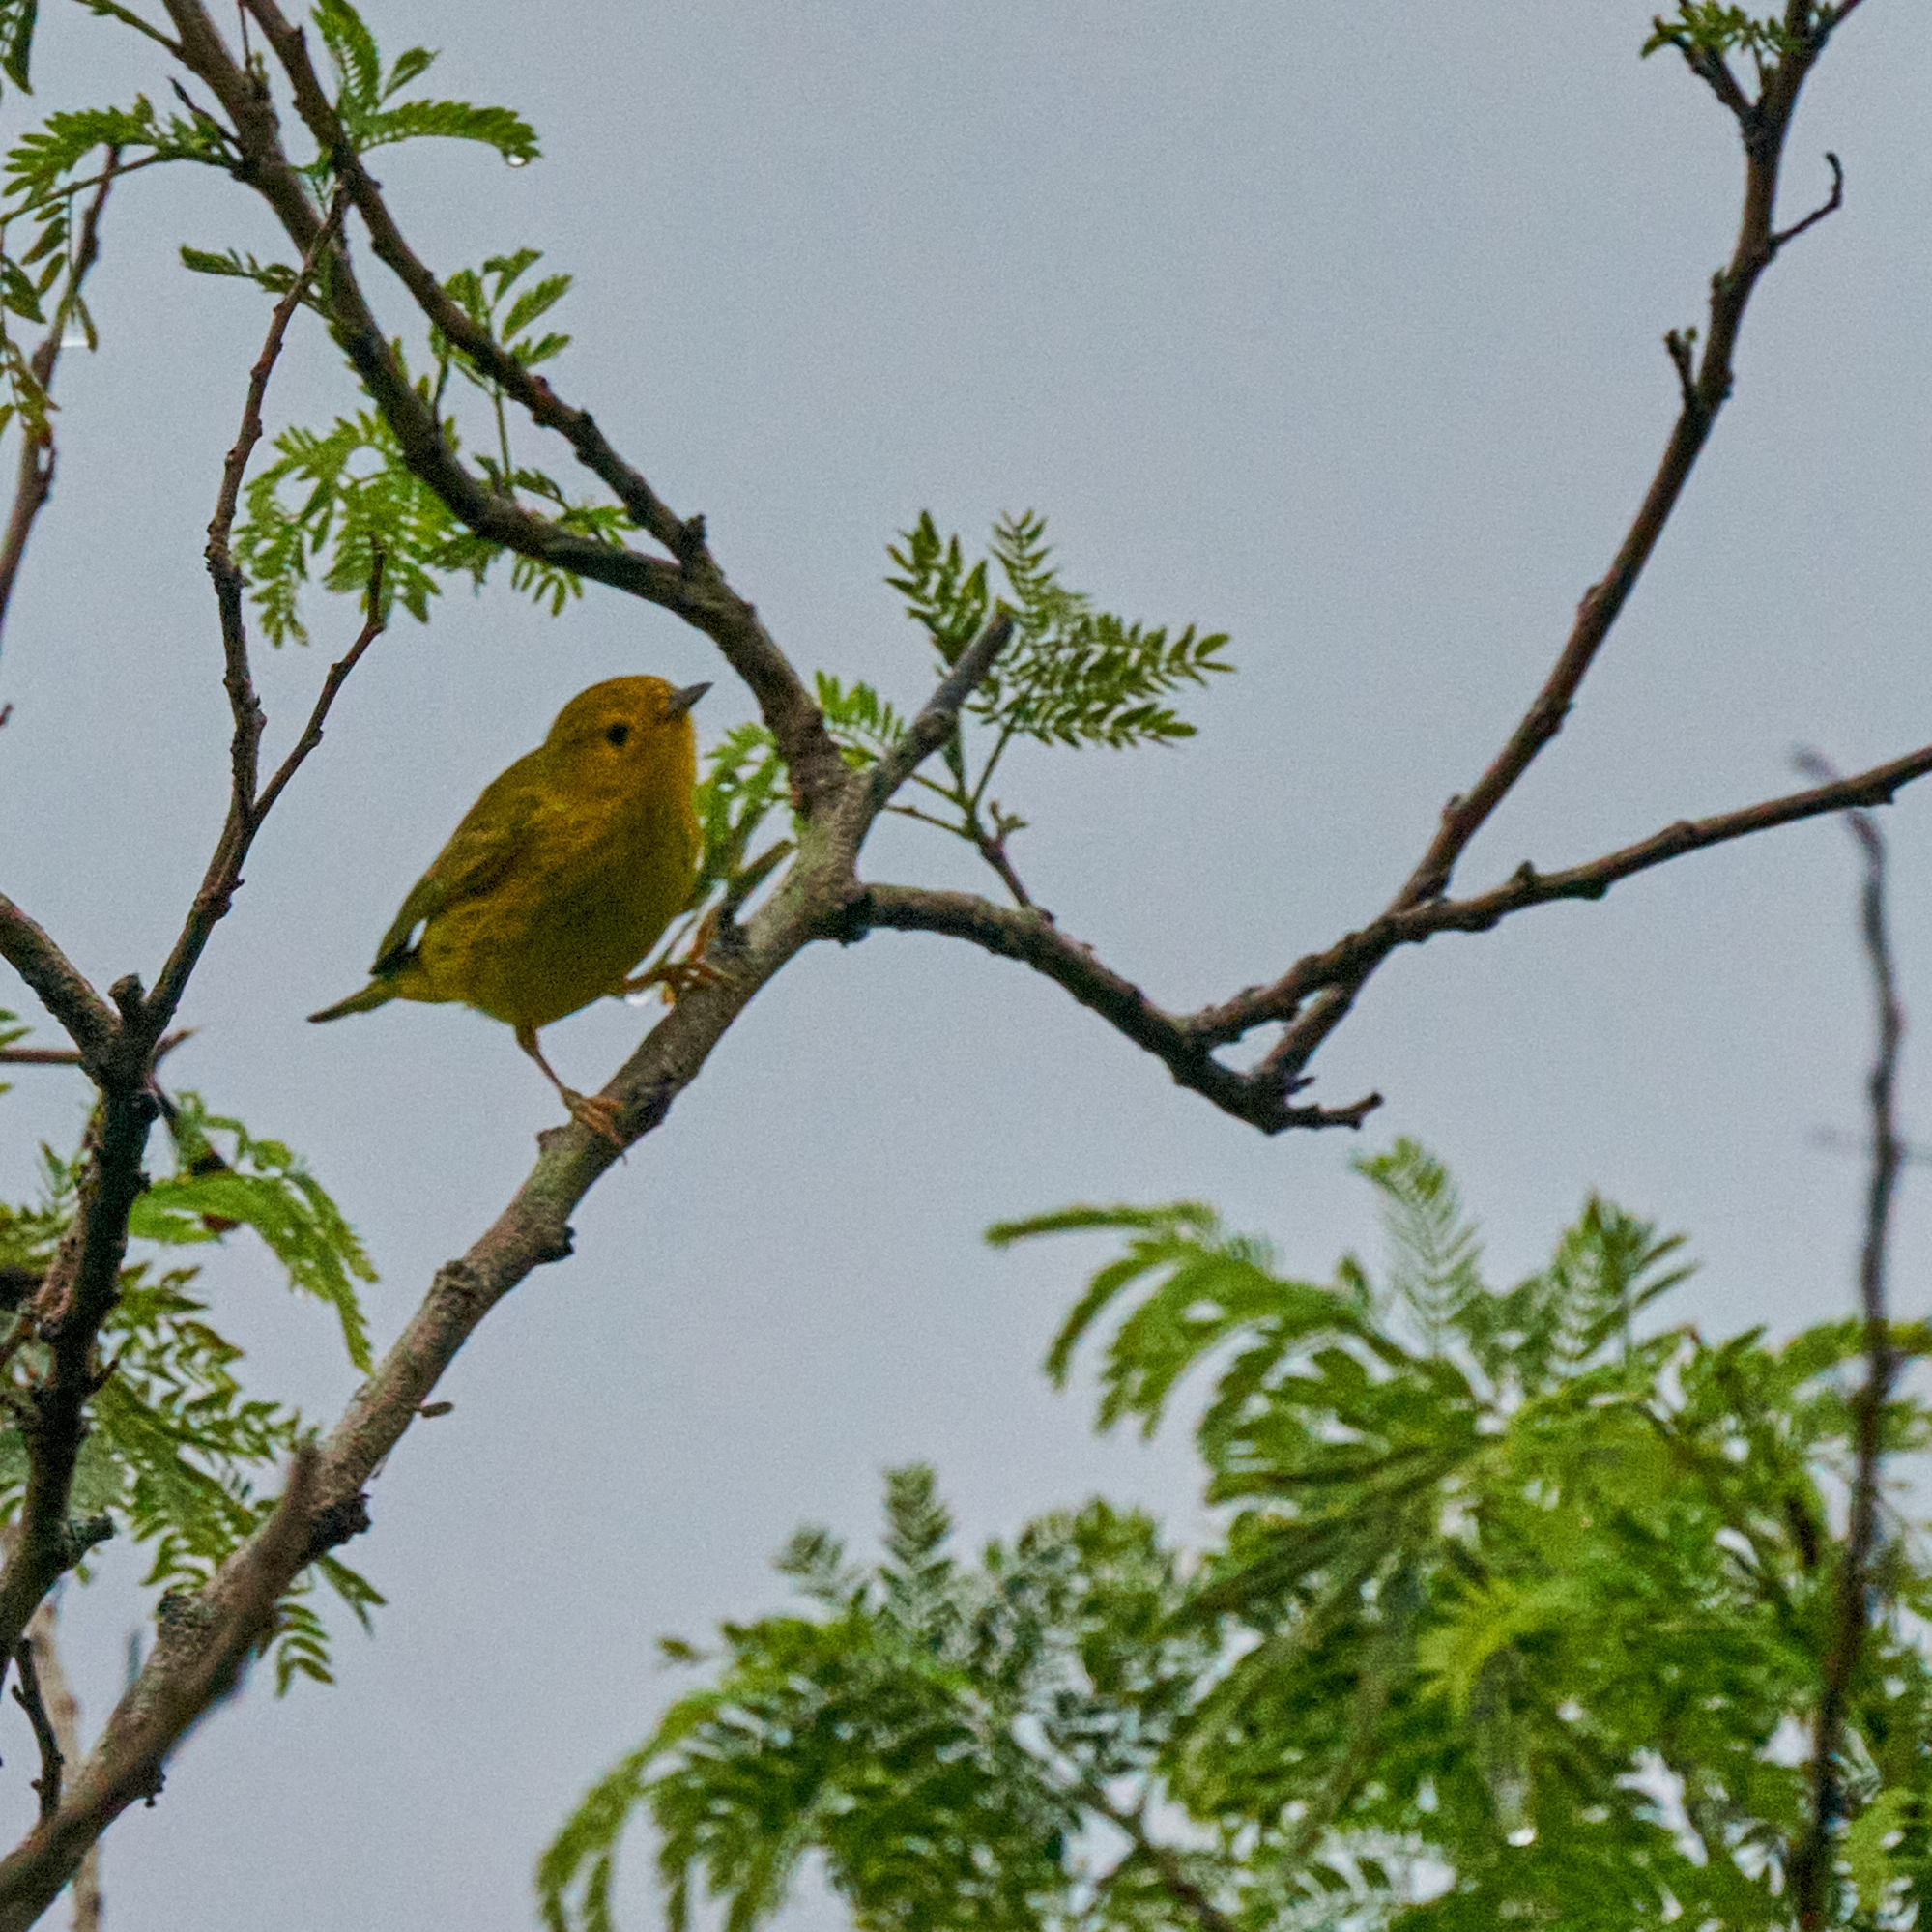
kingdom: Animalia
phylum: Chordata
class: Aves
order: Passeriformes
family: Parulidae
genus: Setophaga
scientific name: Setophaga petechia
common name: Yellow warbler
